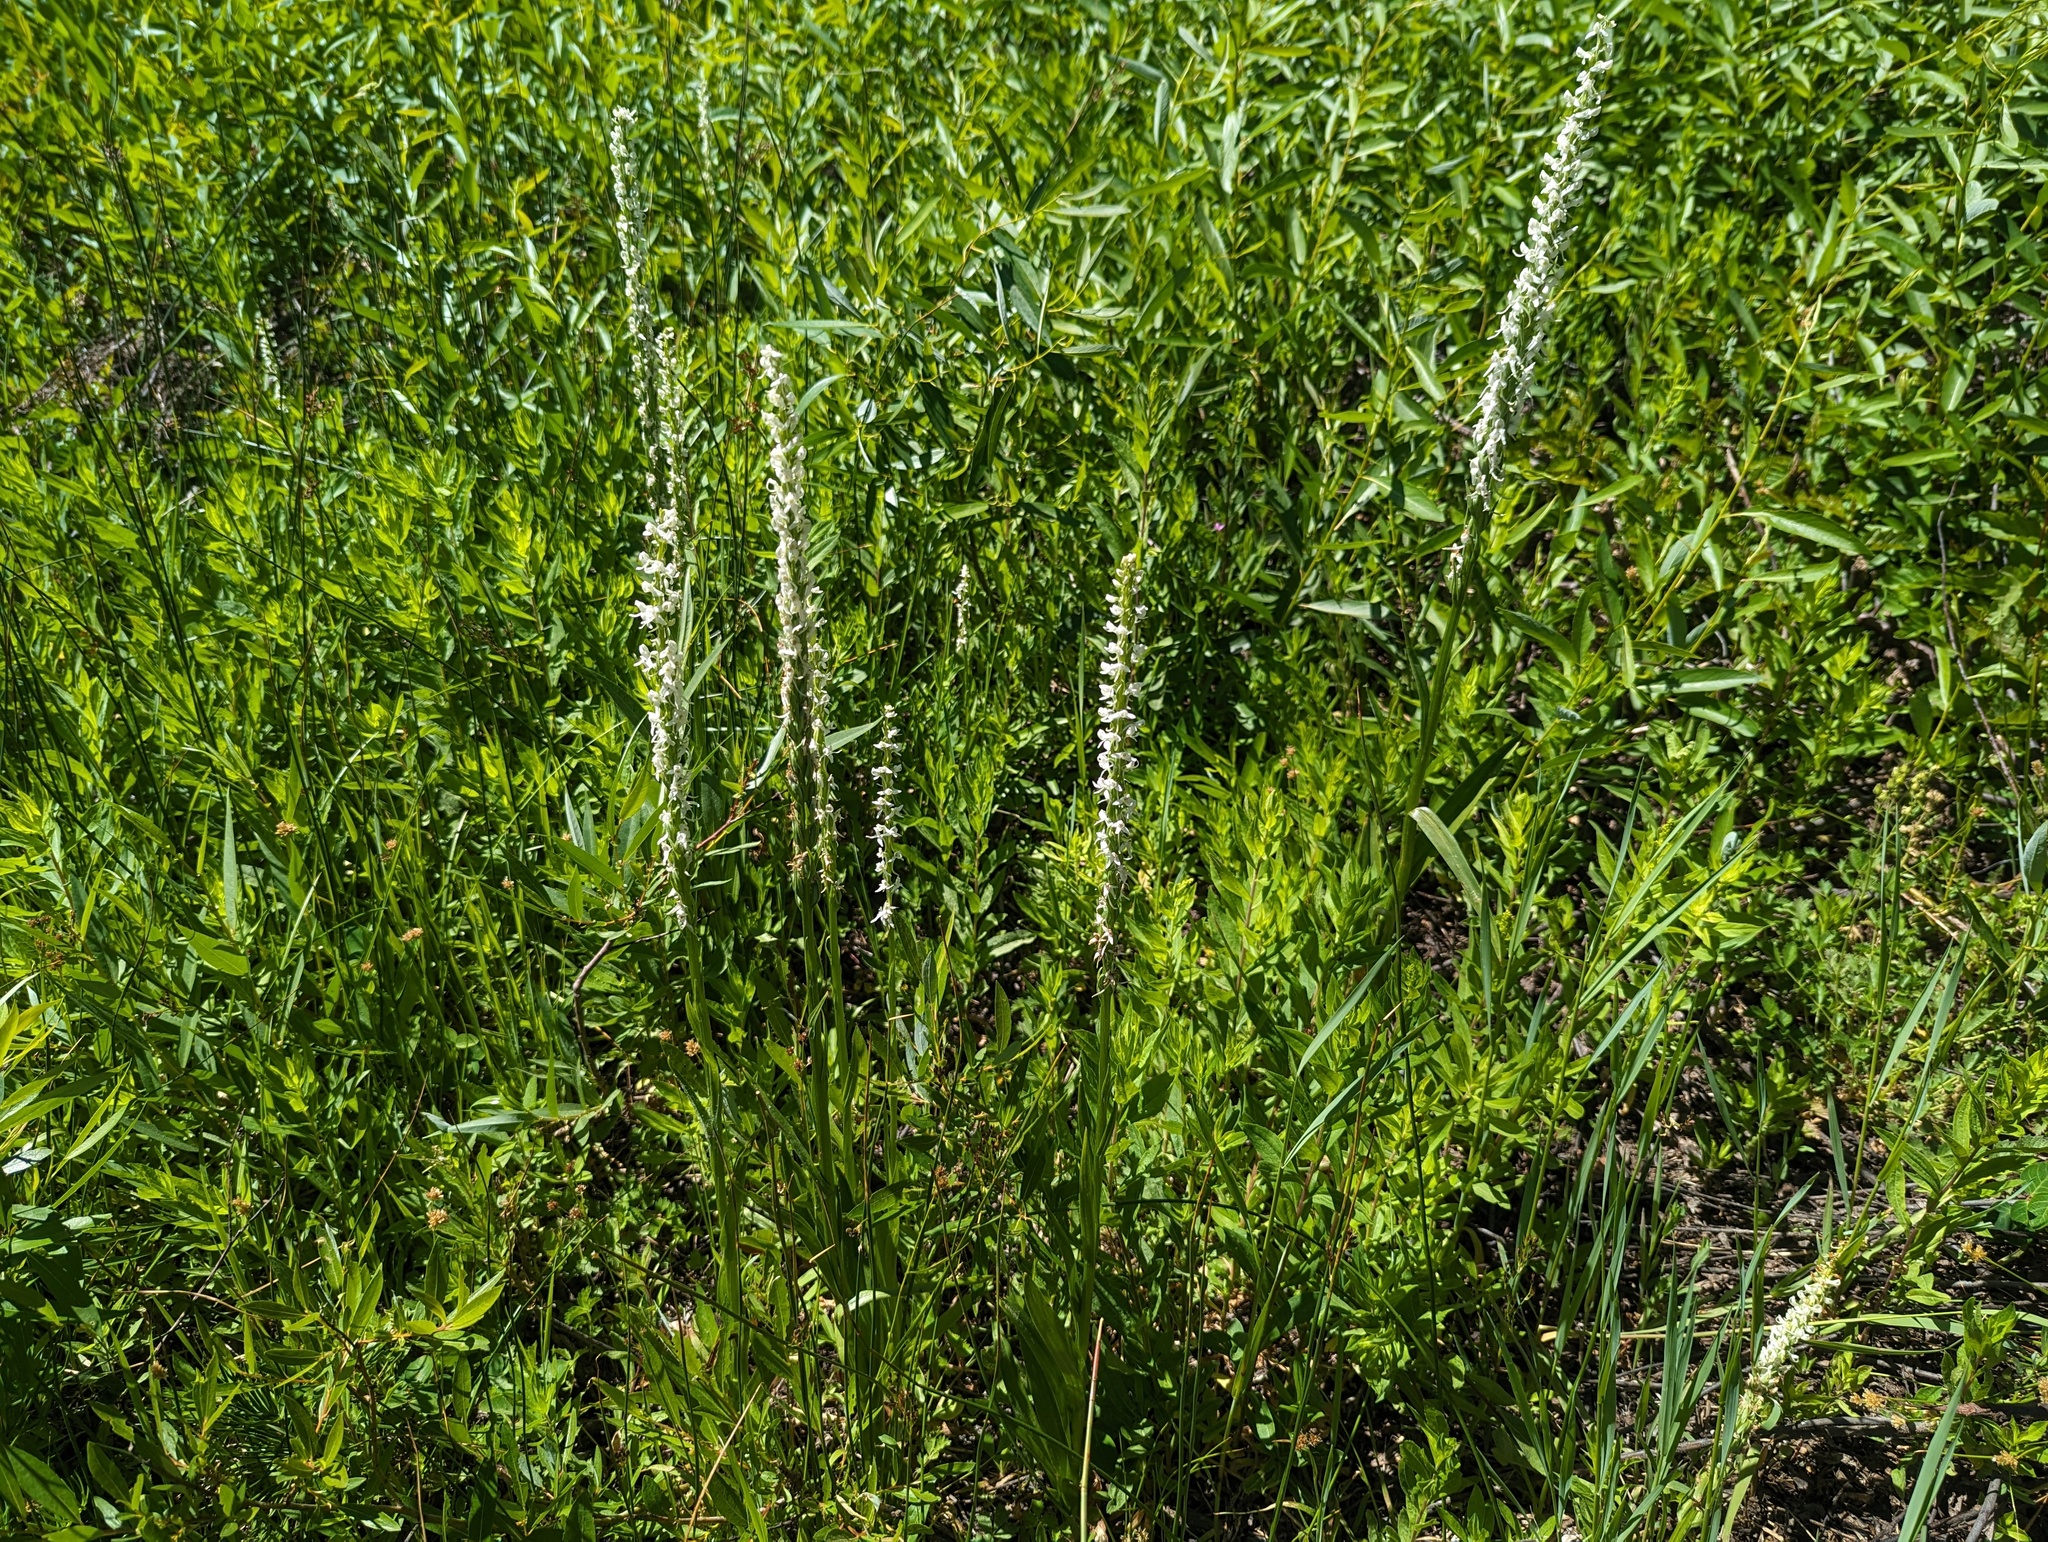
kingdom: Plantae
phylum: Tracheophyta
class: Liliopsida
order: Asparagales
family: Orchidaceae
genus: Platanthera
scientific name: Platanthera dilatata
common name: Bog candles
